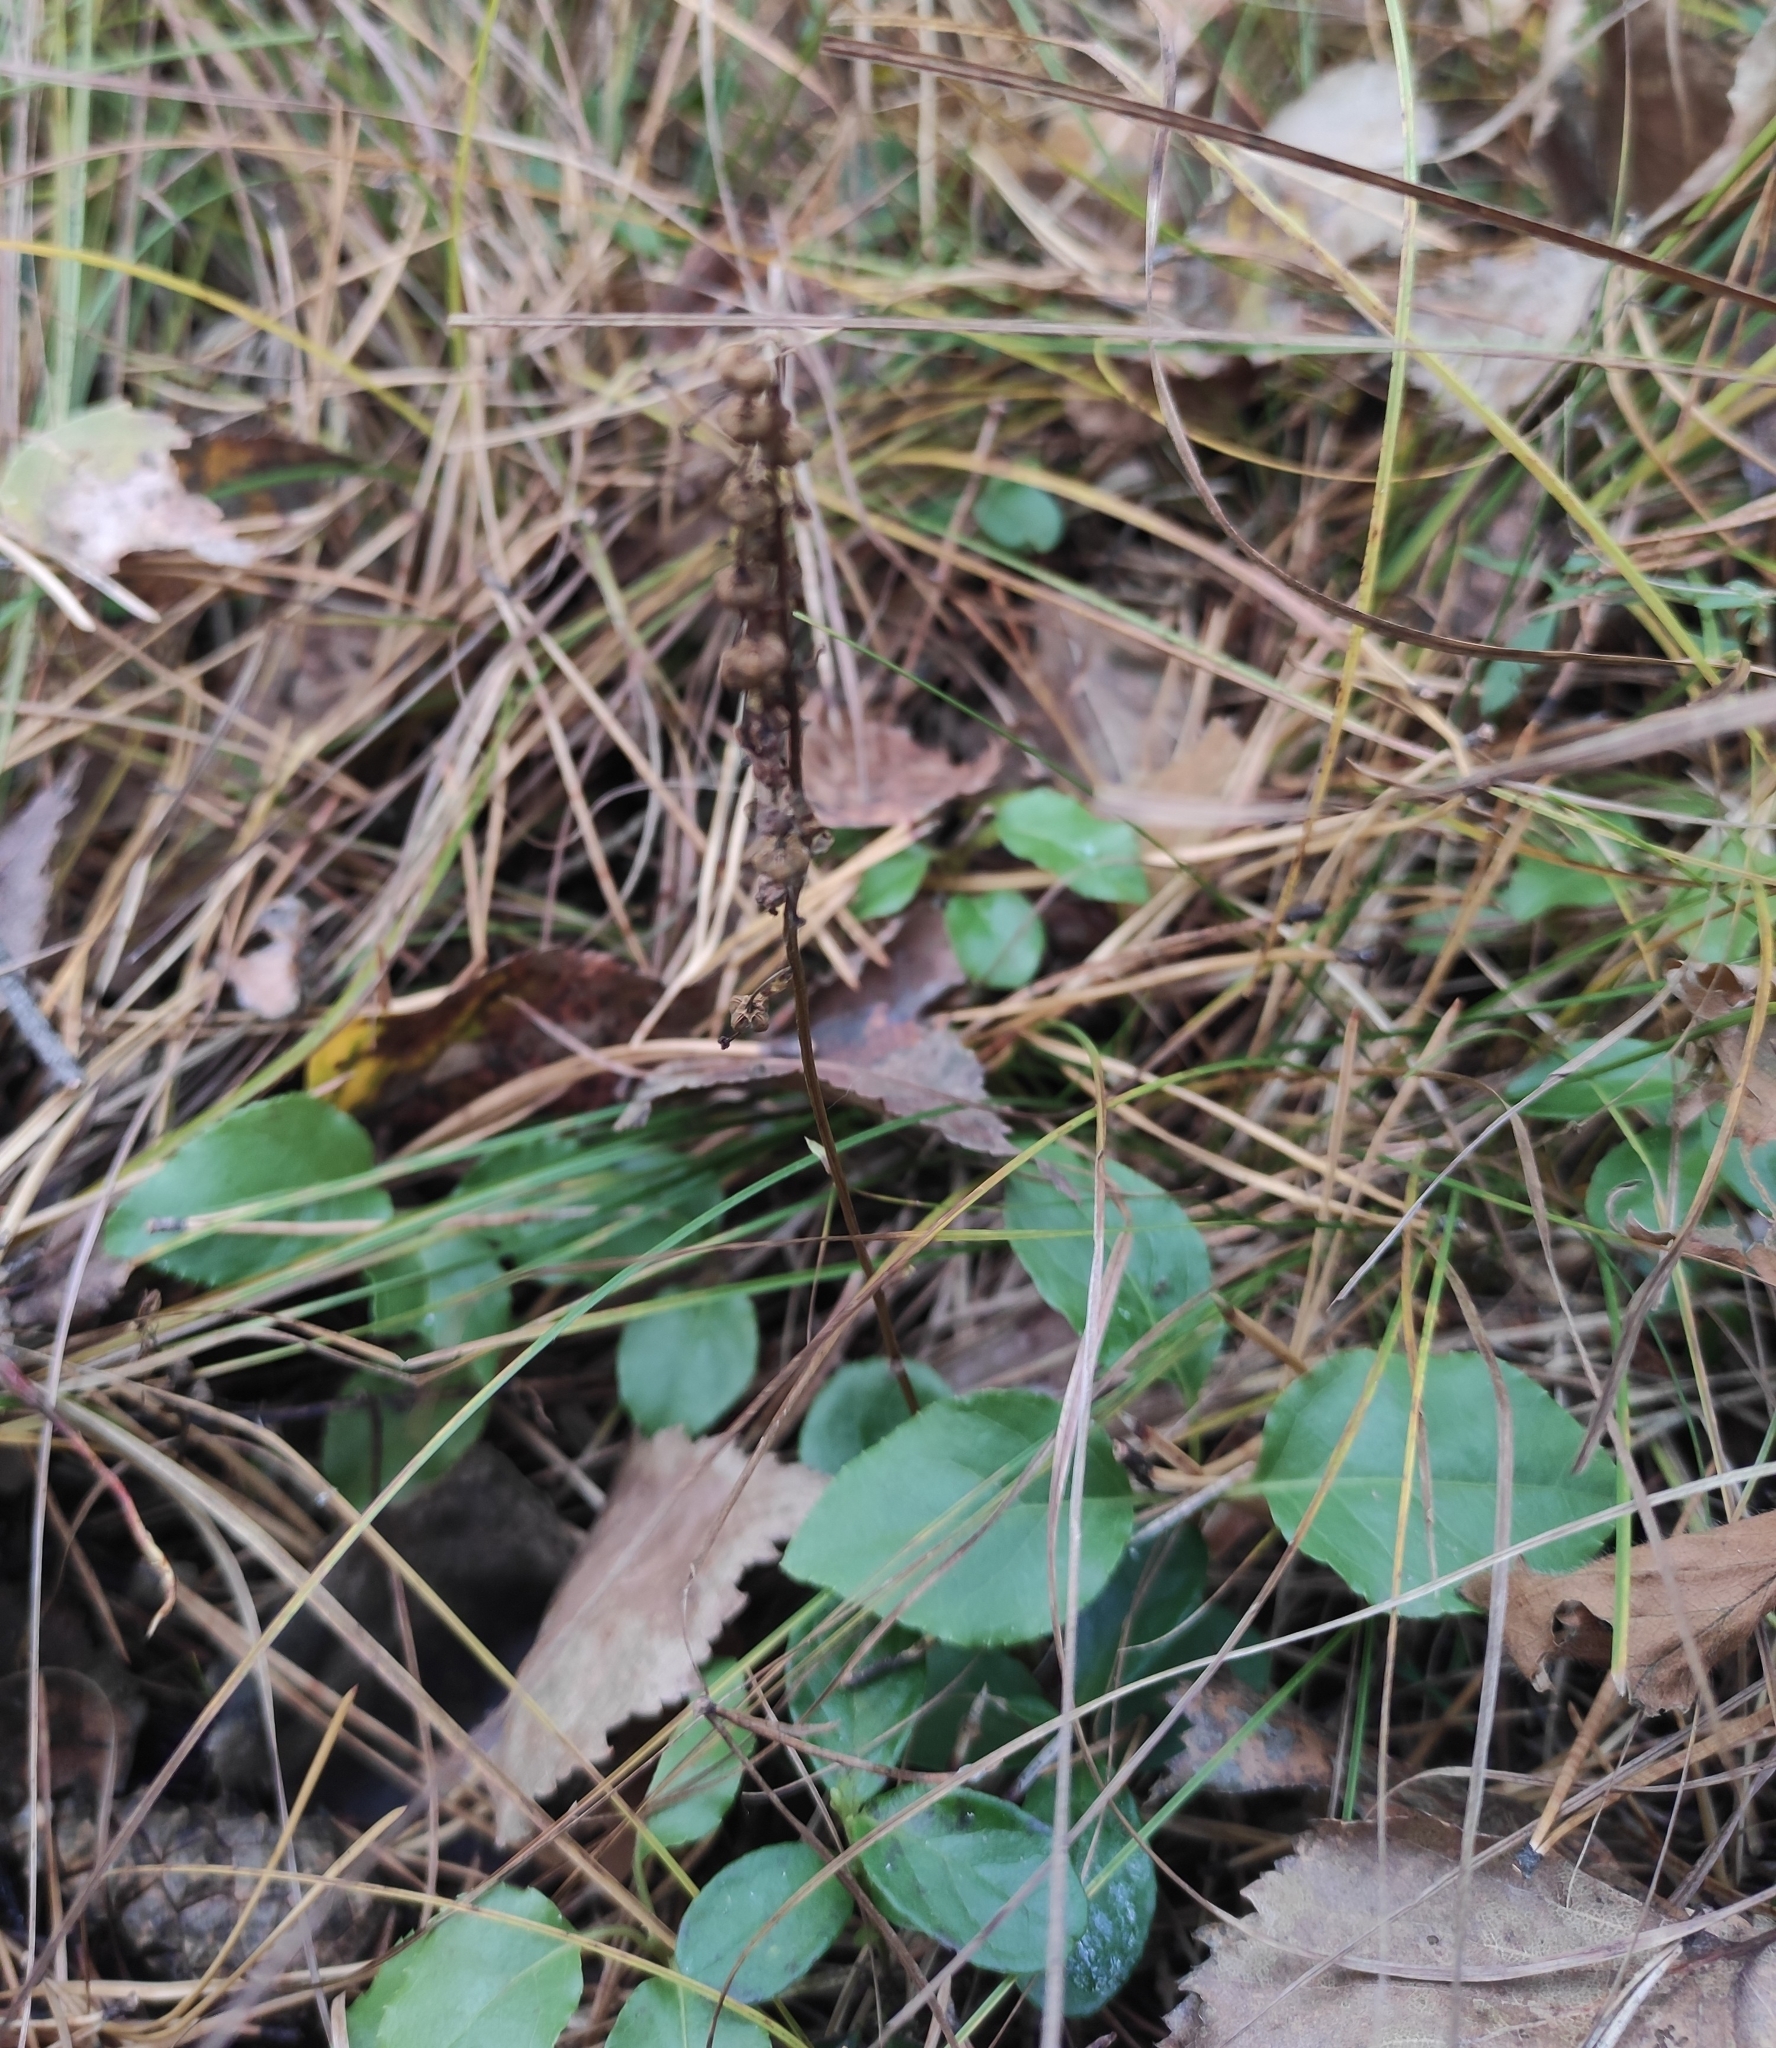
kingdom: Plantae
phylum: Tracheophyta
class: Magnoliopsida
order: Ericales
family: Ericaceae
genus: Orthilia
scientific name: Orthilia secunda
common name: One-sided orthilia
